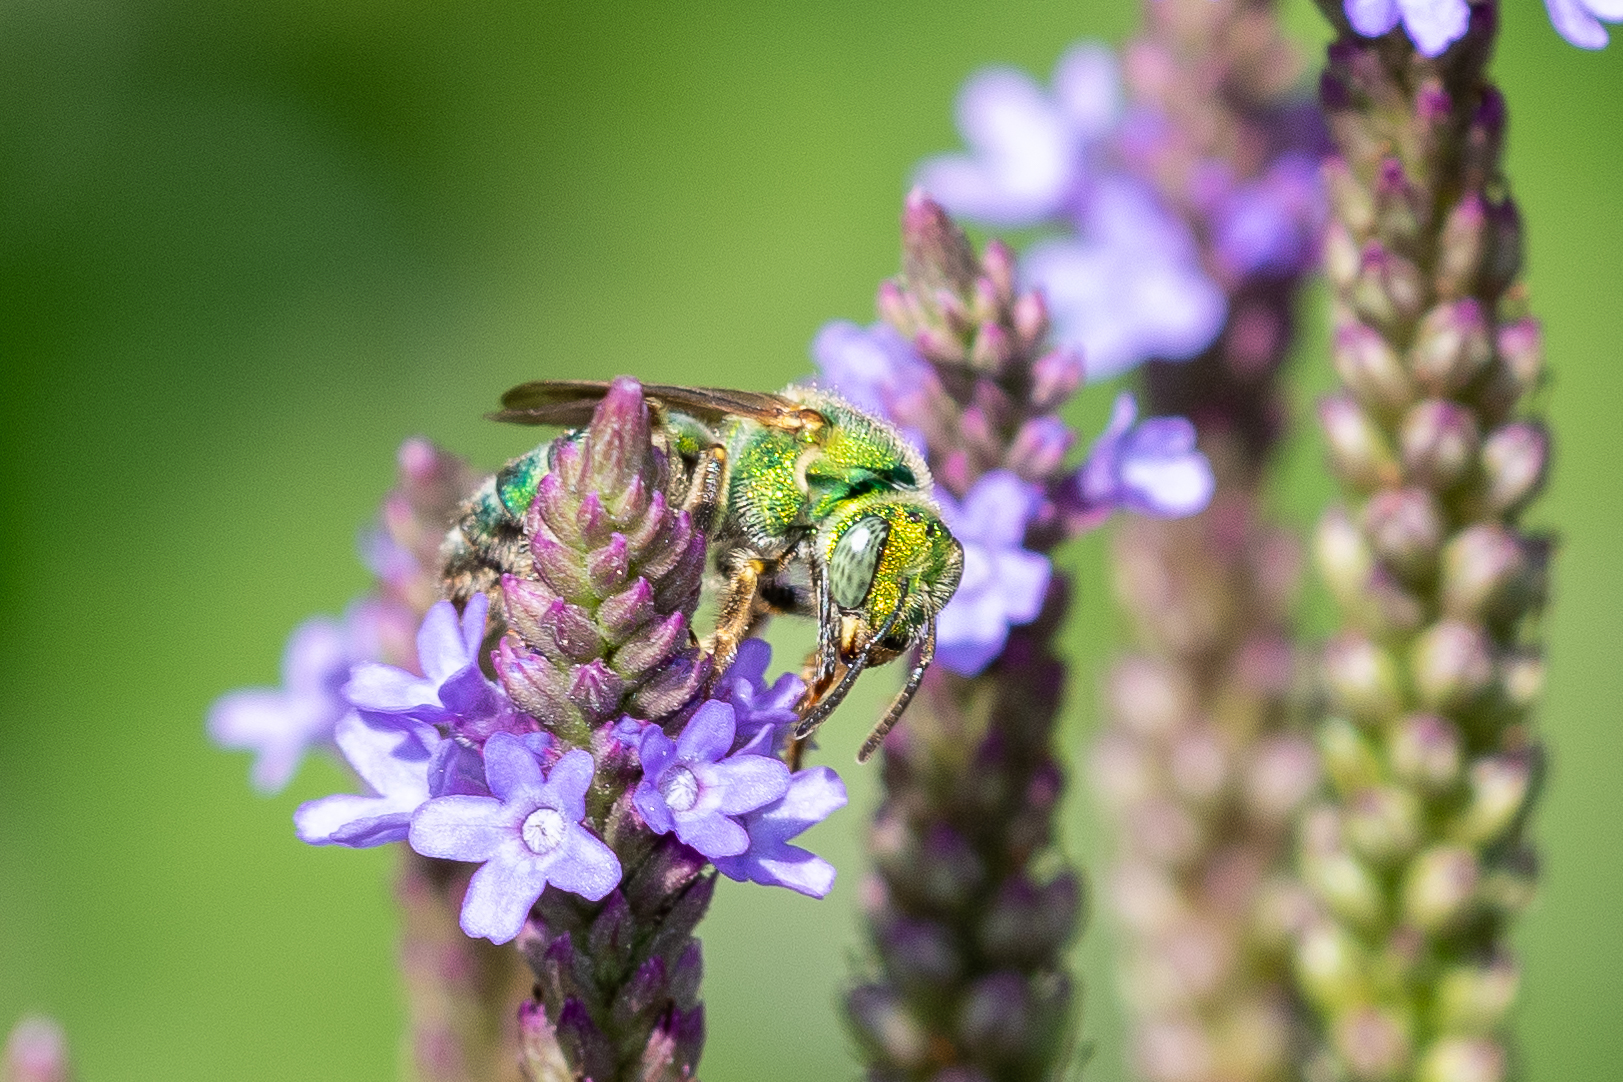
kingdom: Animalia
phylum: Arthropoda
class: Insecta
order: Hymenoptera
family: Halictidae
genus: Agapostemon
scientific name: Agapostemon sericeus
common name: Silky striped sweat bee
